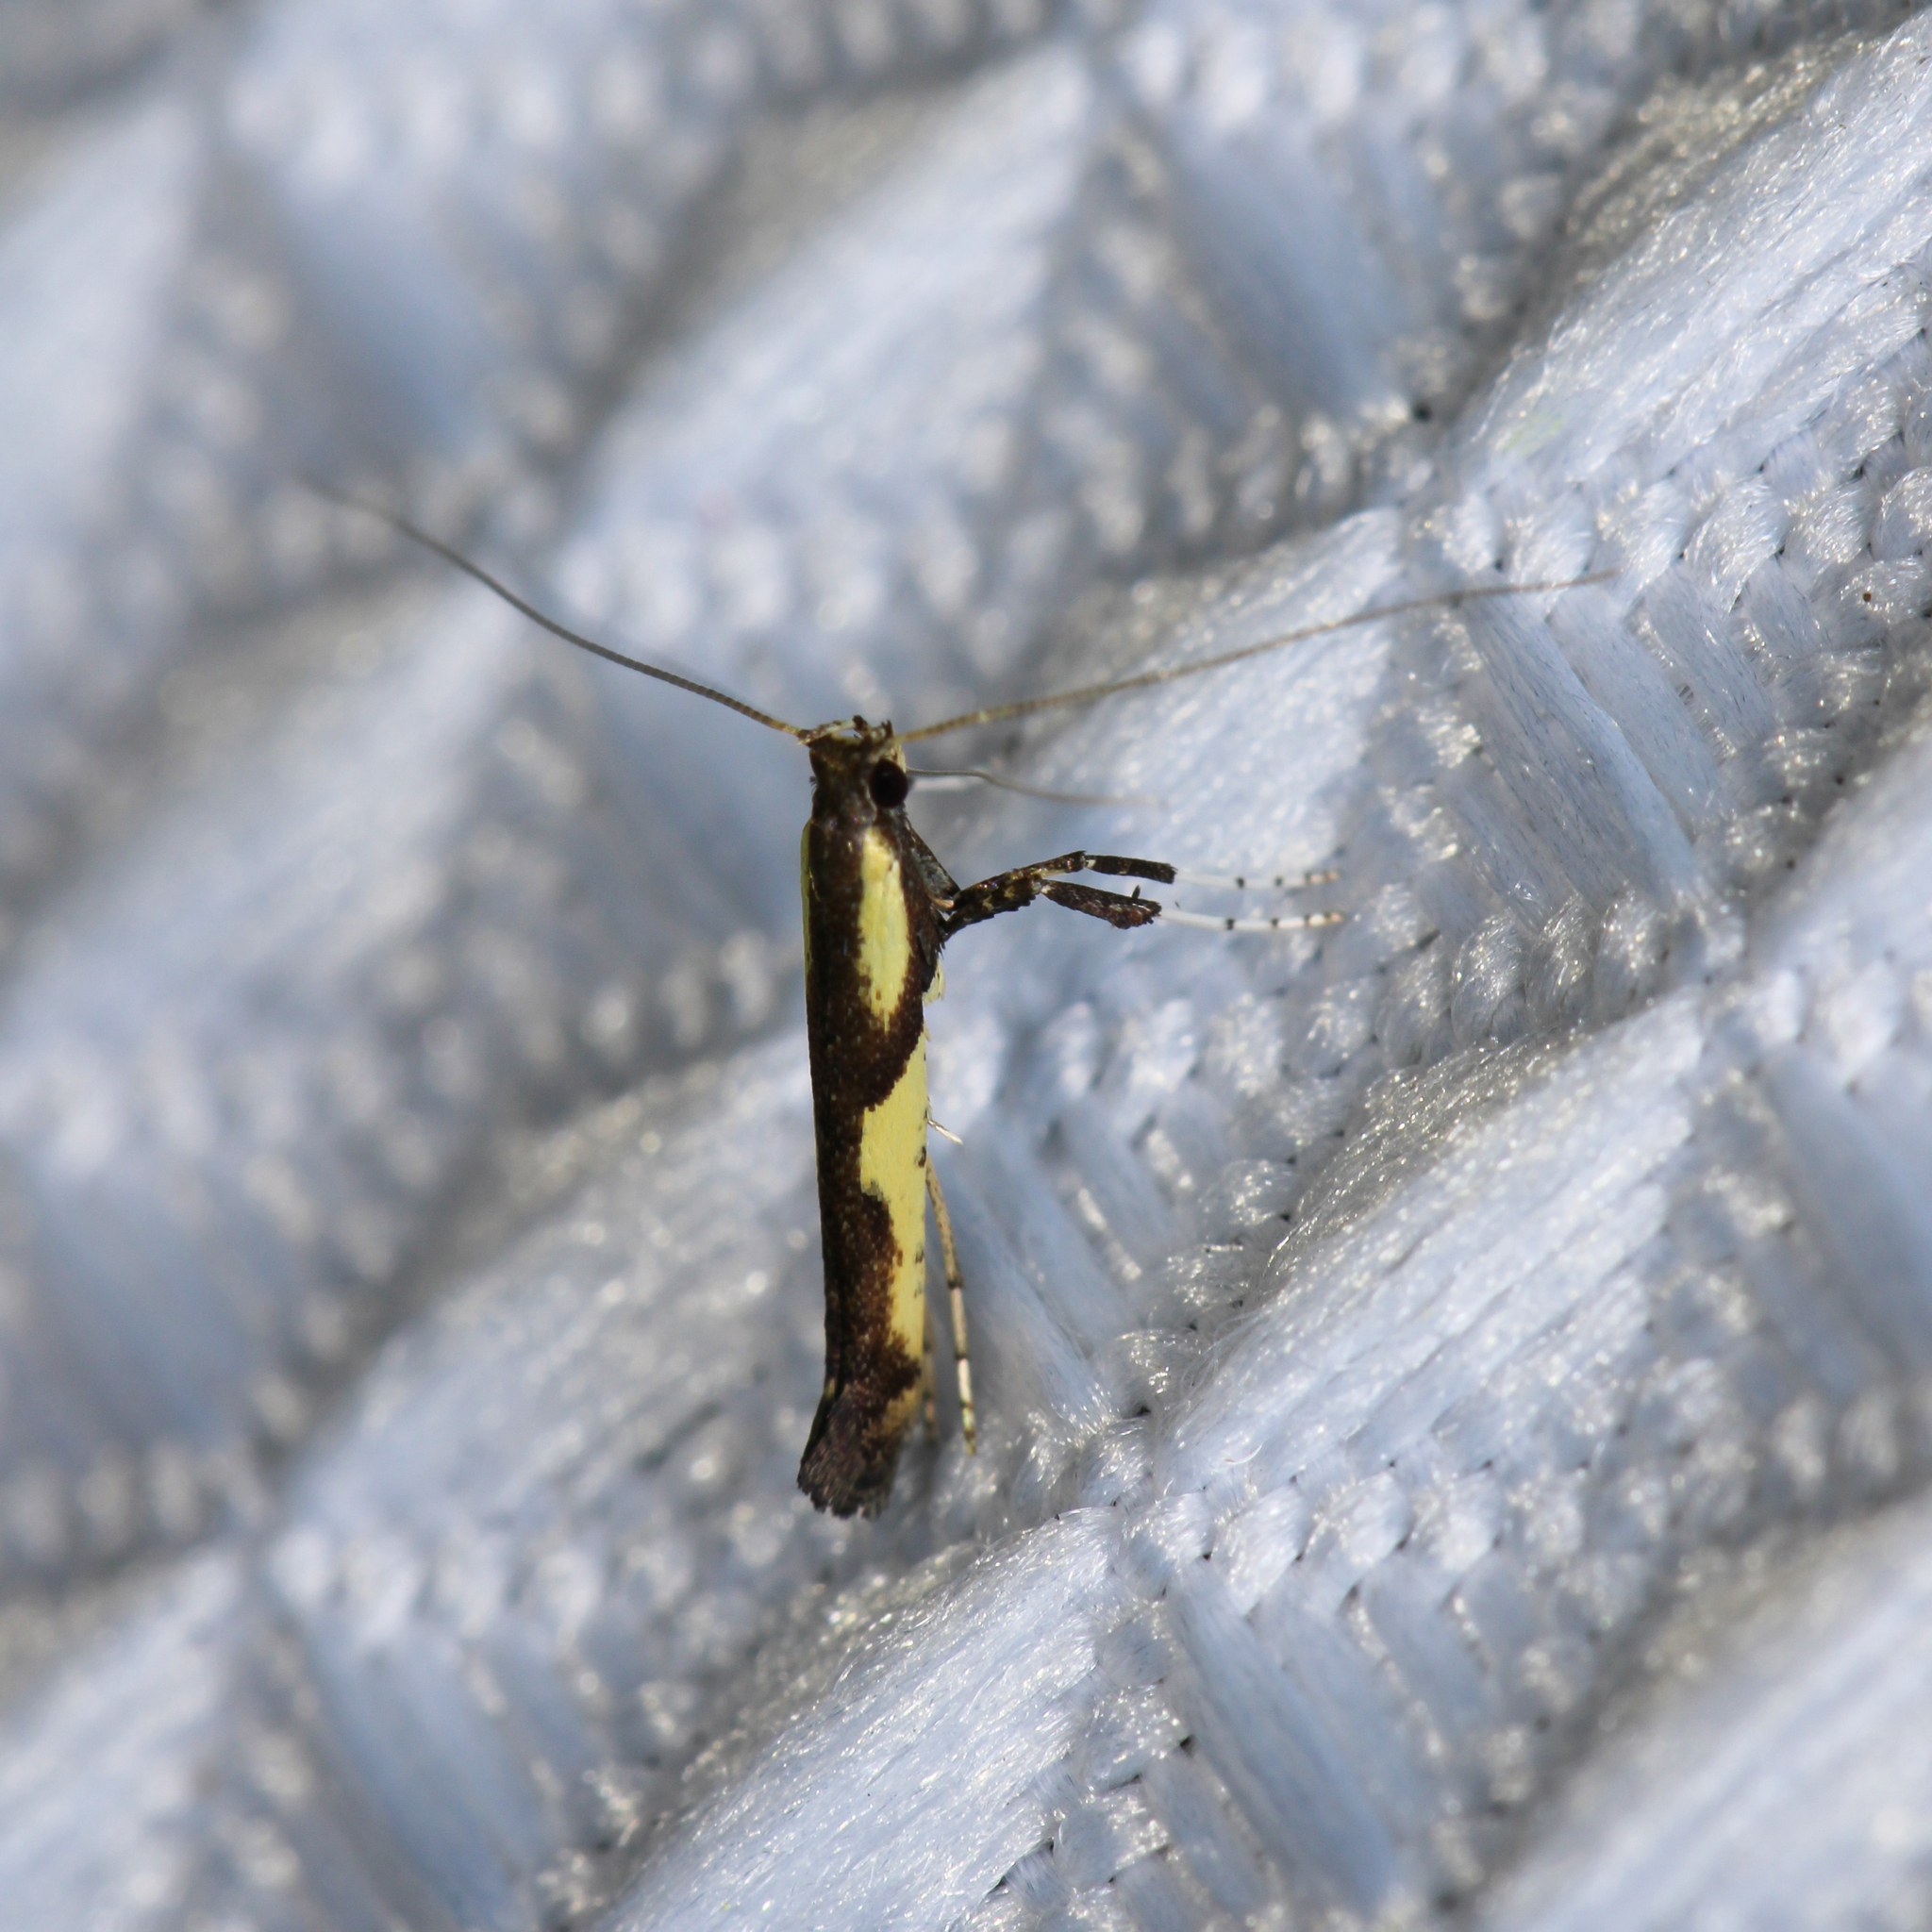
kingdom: Animalia
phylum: Arthropoda
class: Insecta
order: Lepidoptera
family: Gracillariidae
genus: Caloptilia
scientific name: Caloptilia blandella
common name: Walnut caloptilia moth
